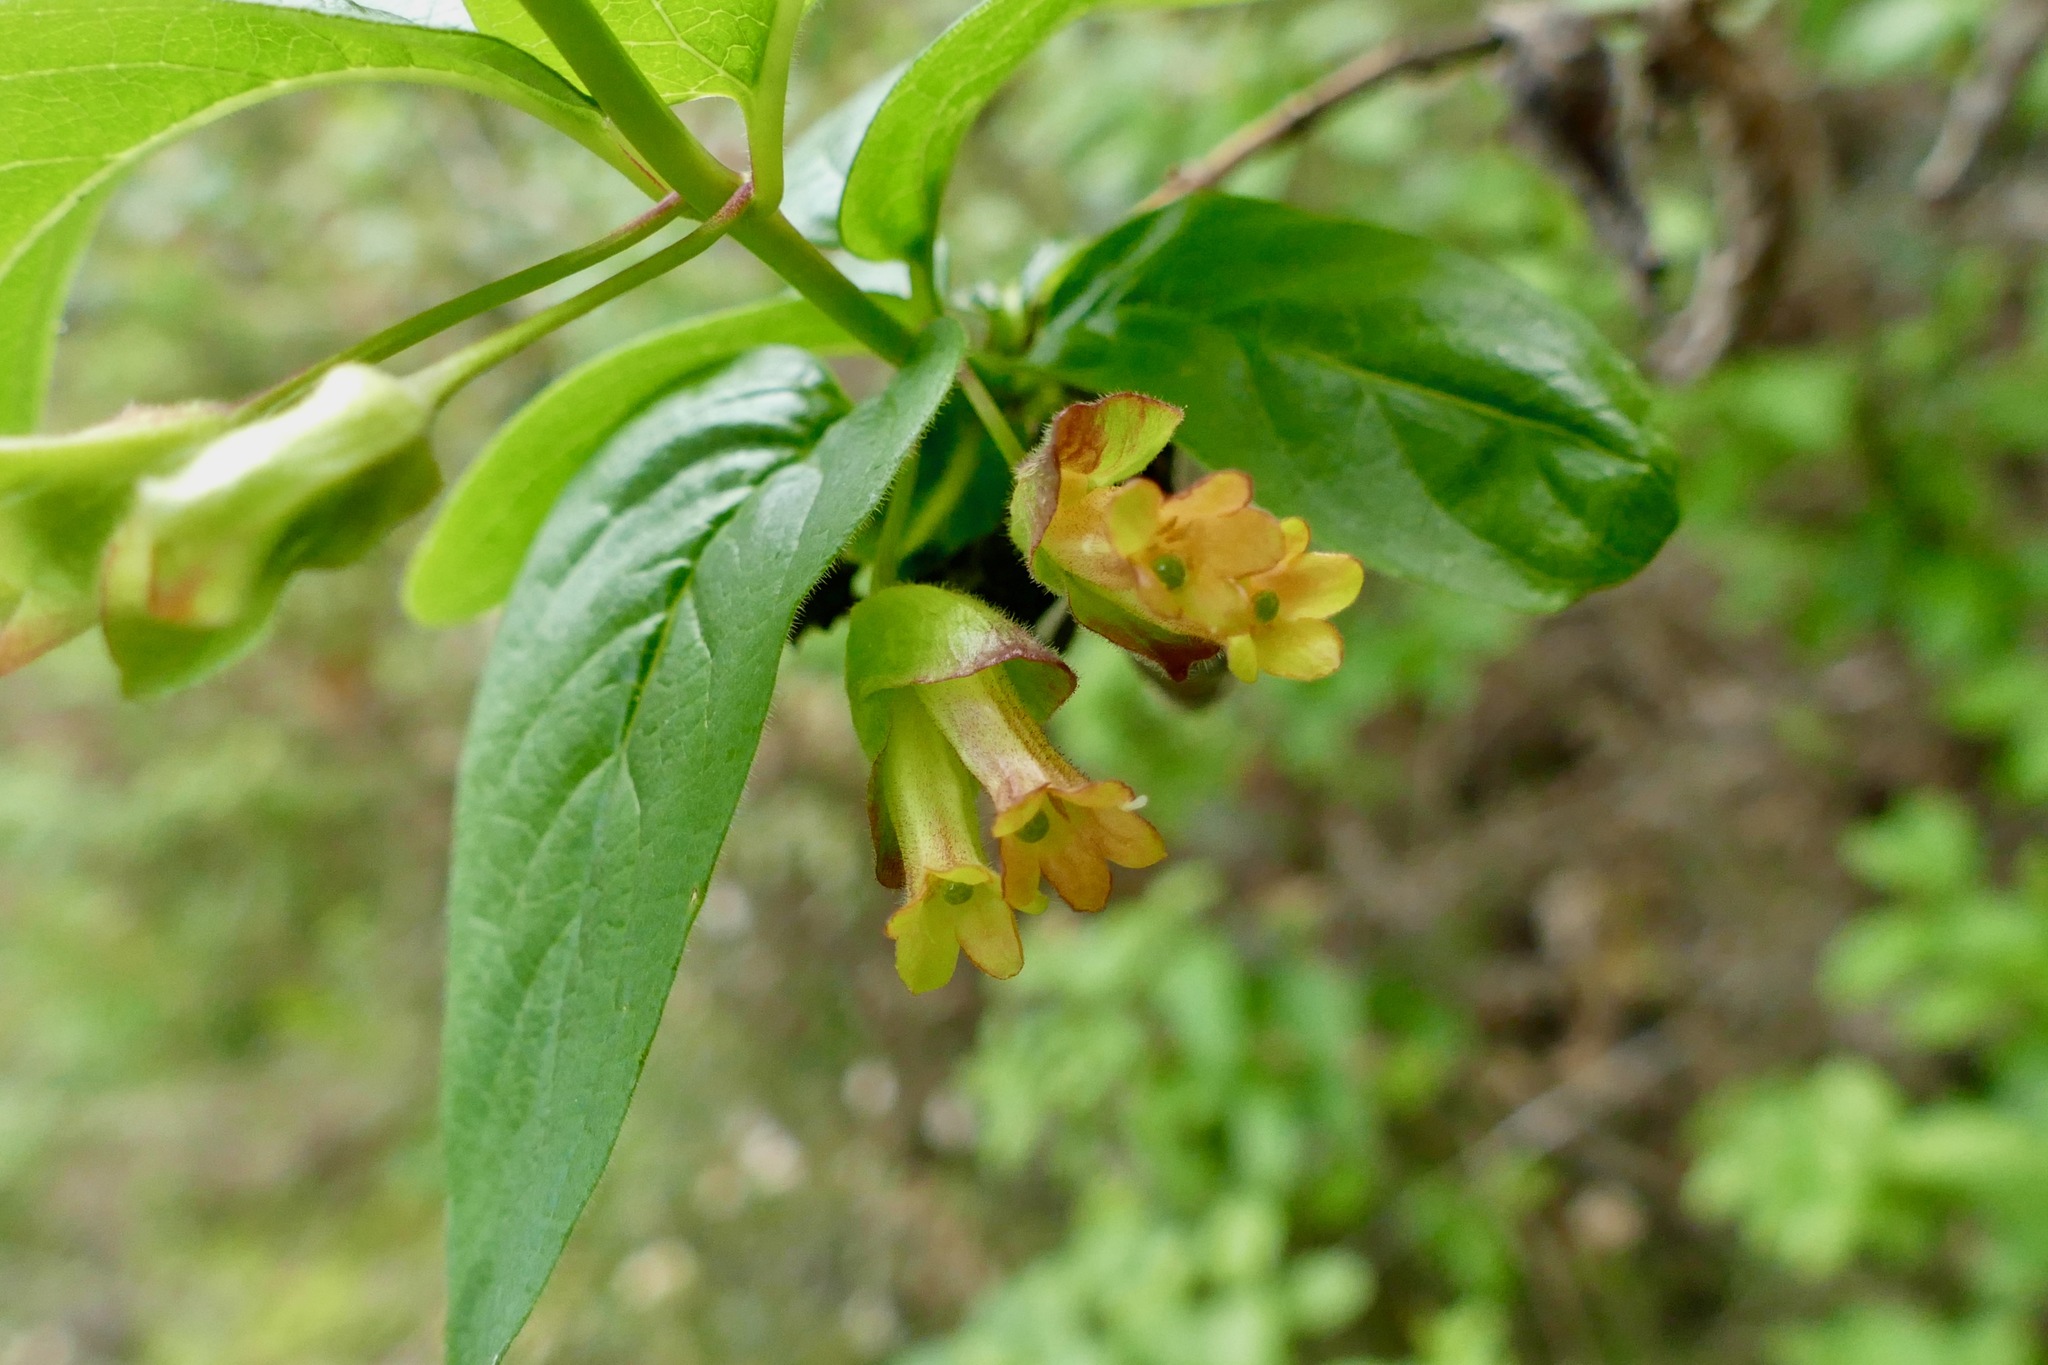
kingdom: Plantae
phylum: Tracheophyta
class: Magnoliopsida
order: Dipsacales
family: Caprifoliaceae
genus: Lonicera
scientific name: Lonicera involucrata
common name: Californian honeysuckle
